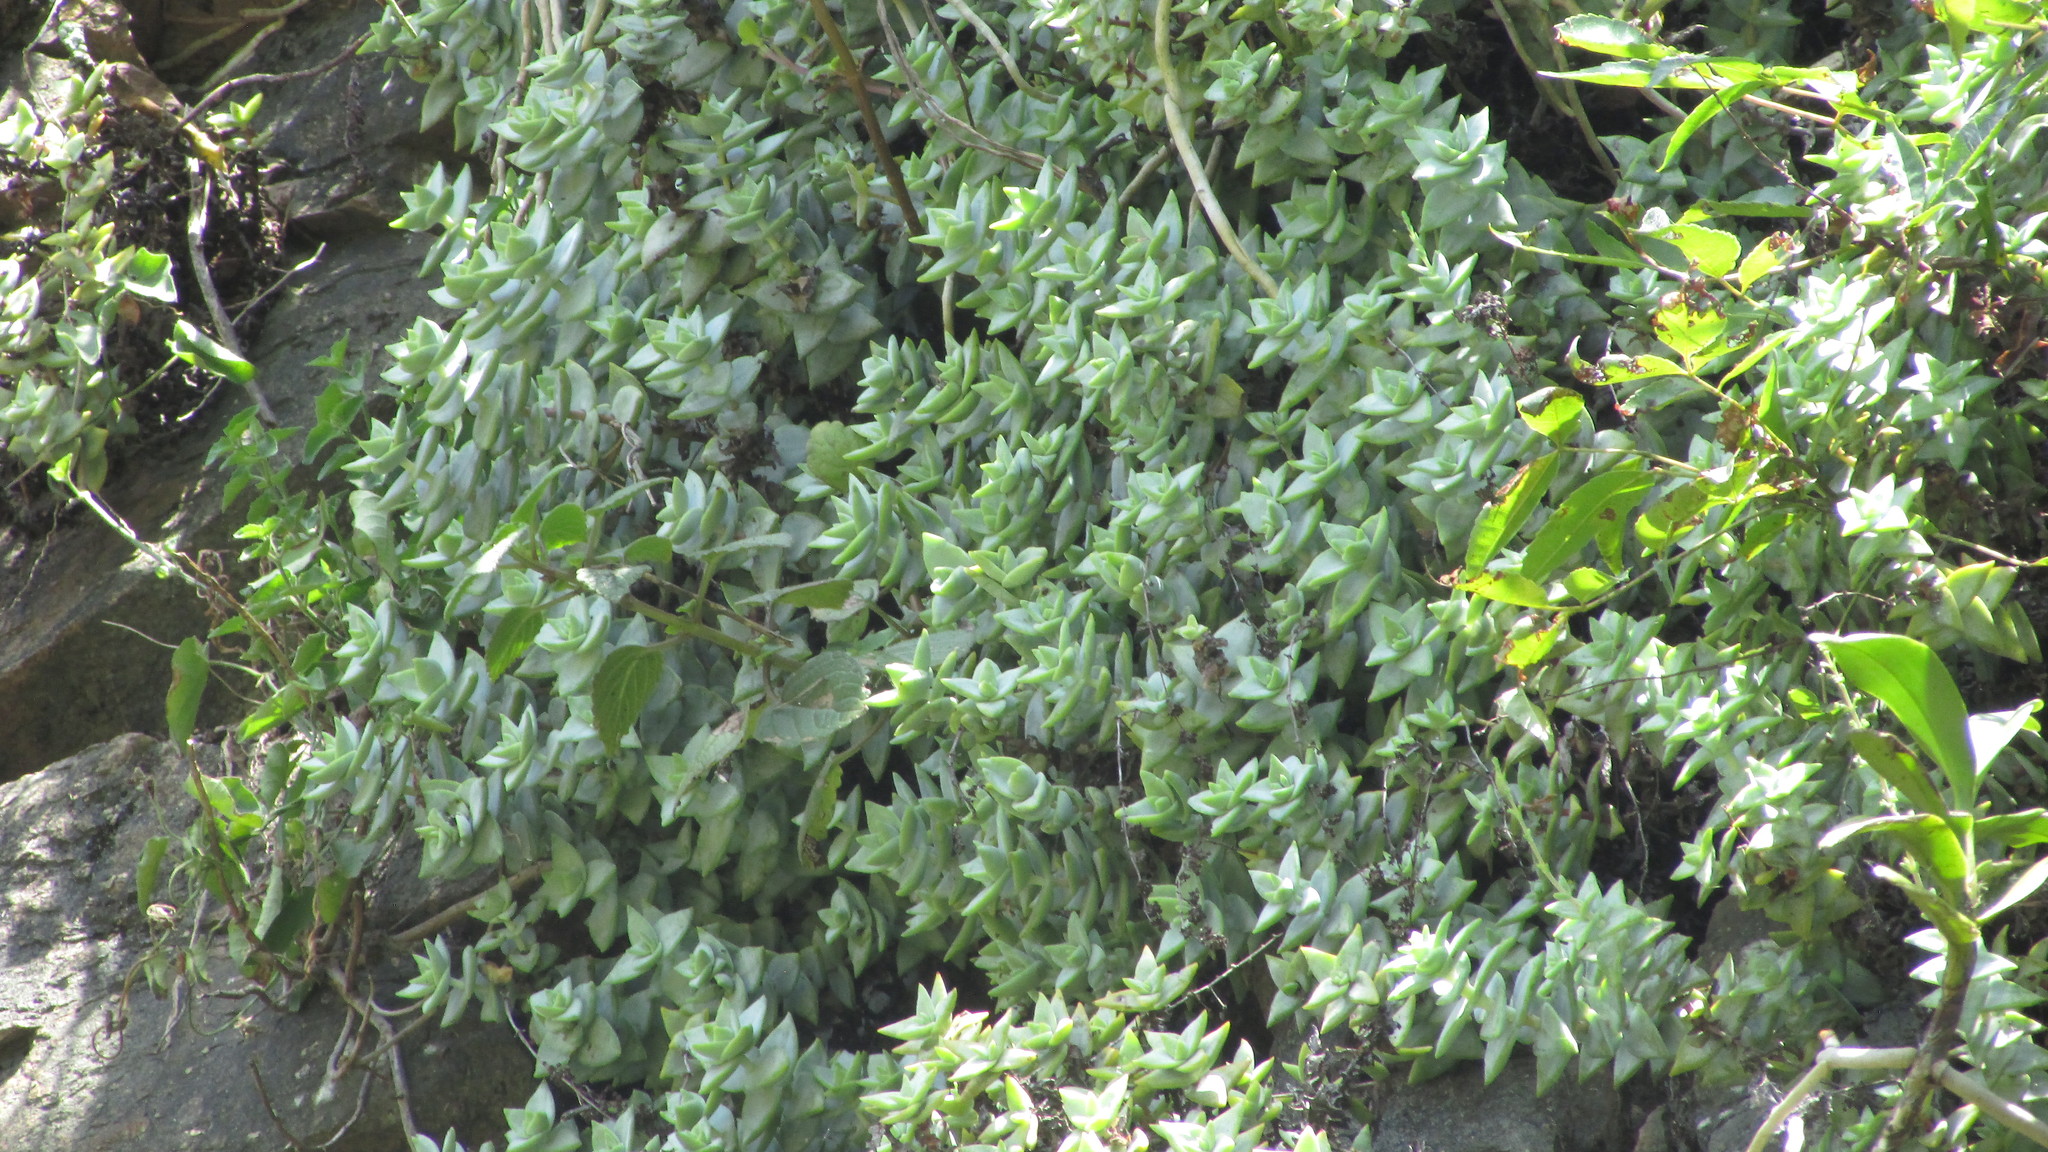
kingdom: Plantae
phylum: Tracheophyta
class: Magnoliopsida
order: Saxifragales
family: Crassulaceae
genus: Crassula
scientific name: Crassula perforata
